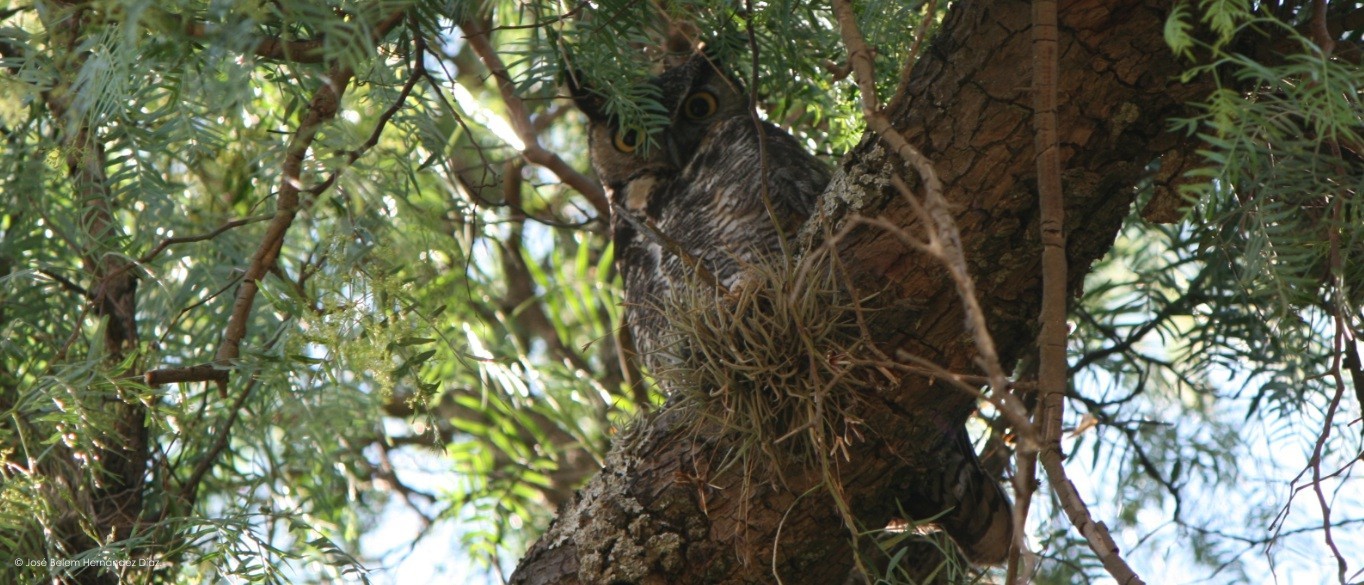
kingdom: Animalia
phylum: Chordata
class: Aves
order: Strigiformes
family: Strigidae
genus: Bubo
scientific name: Bubo virginianus
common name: Great horned owl
